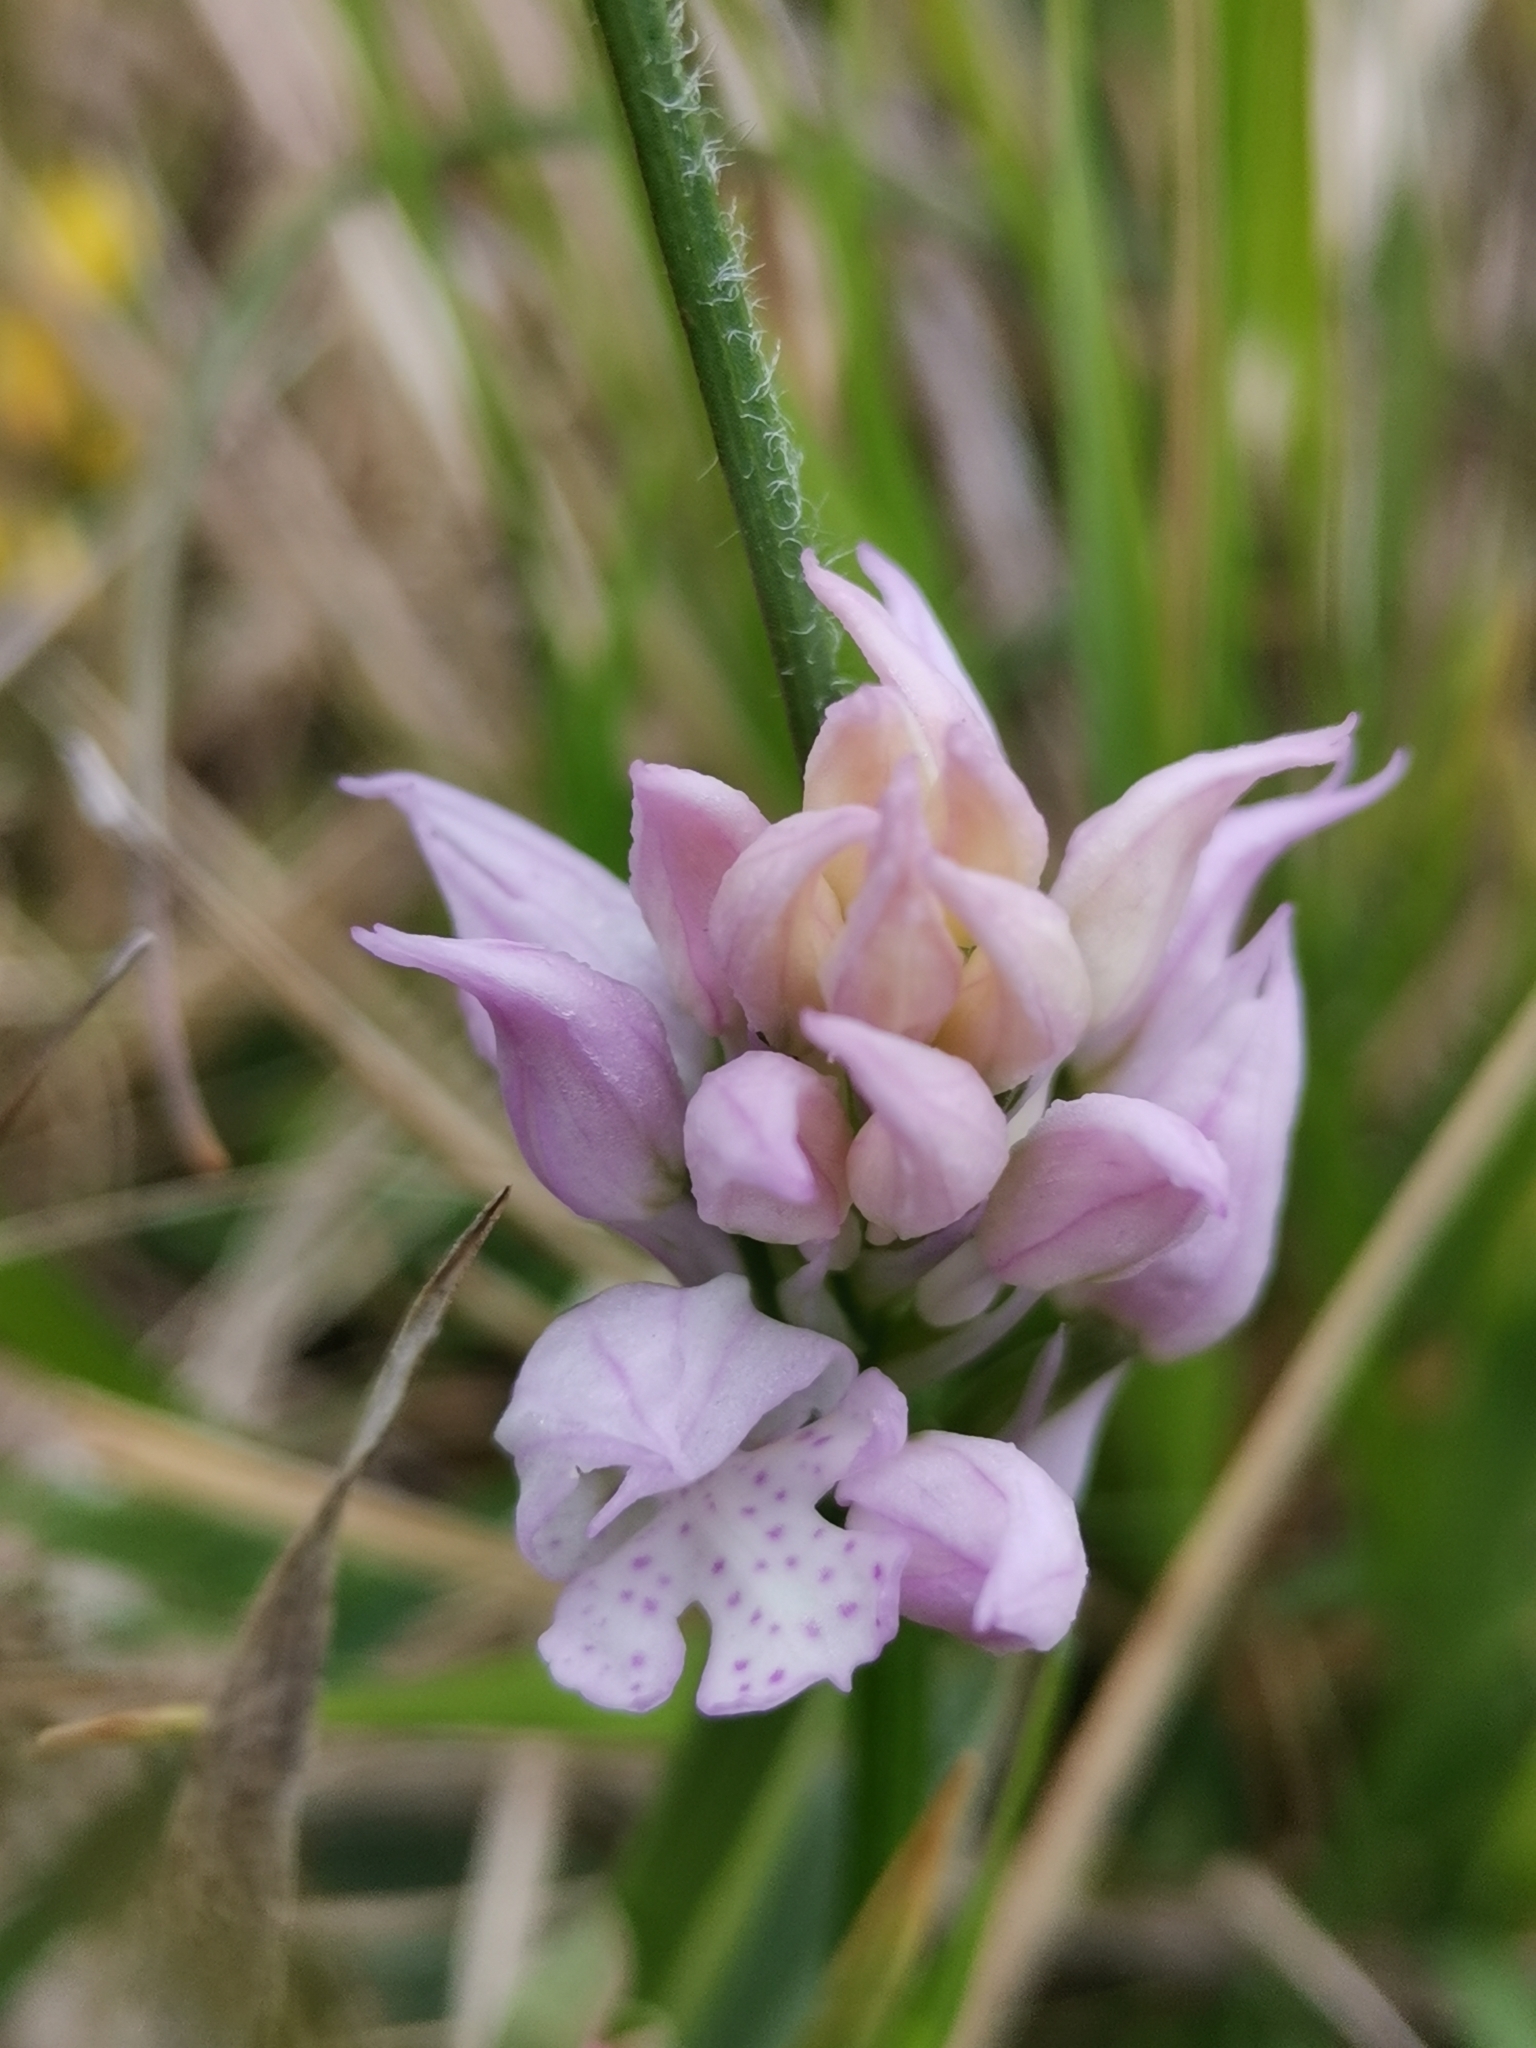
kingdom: Plantae
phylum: Tracheophyta
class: Liliopsida
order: Asparagales
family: Orchidaceae
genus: Neotinea
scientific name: Neotinea tridentata
